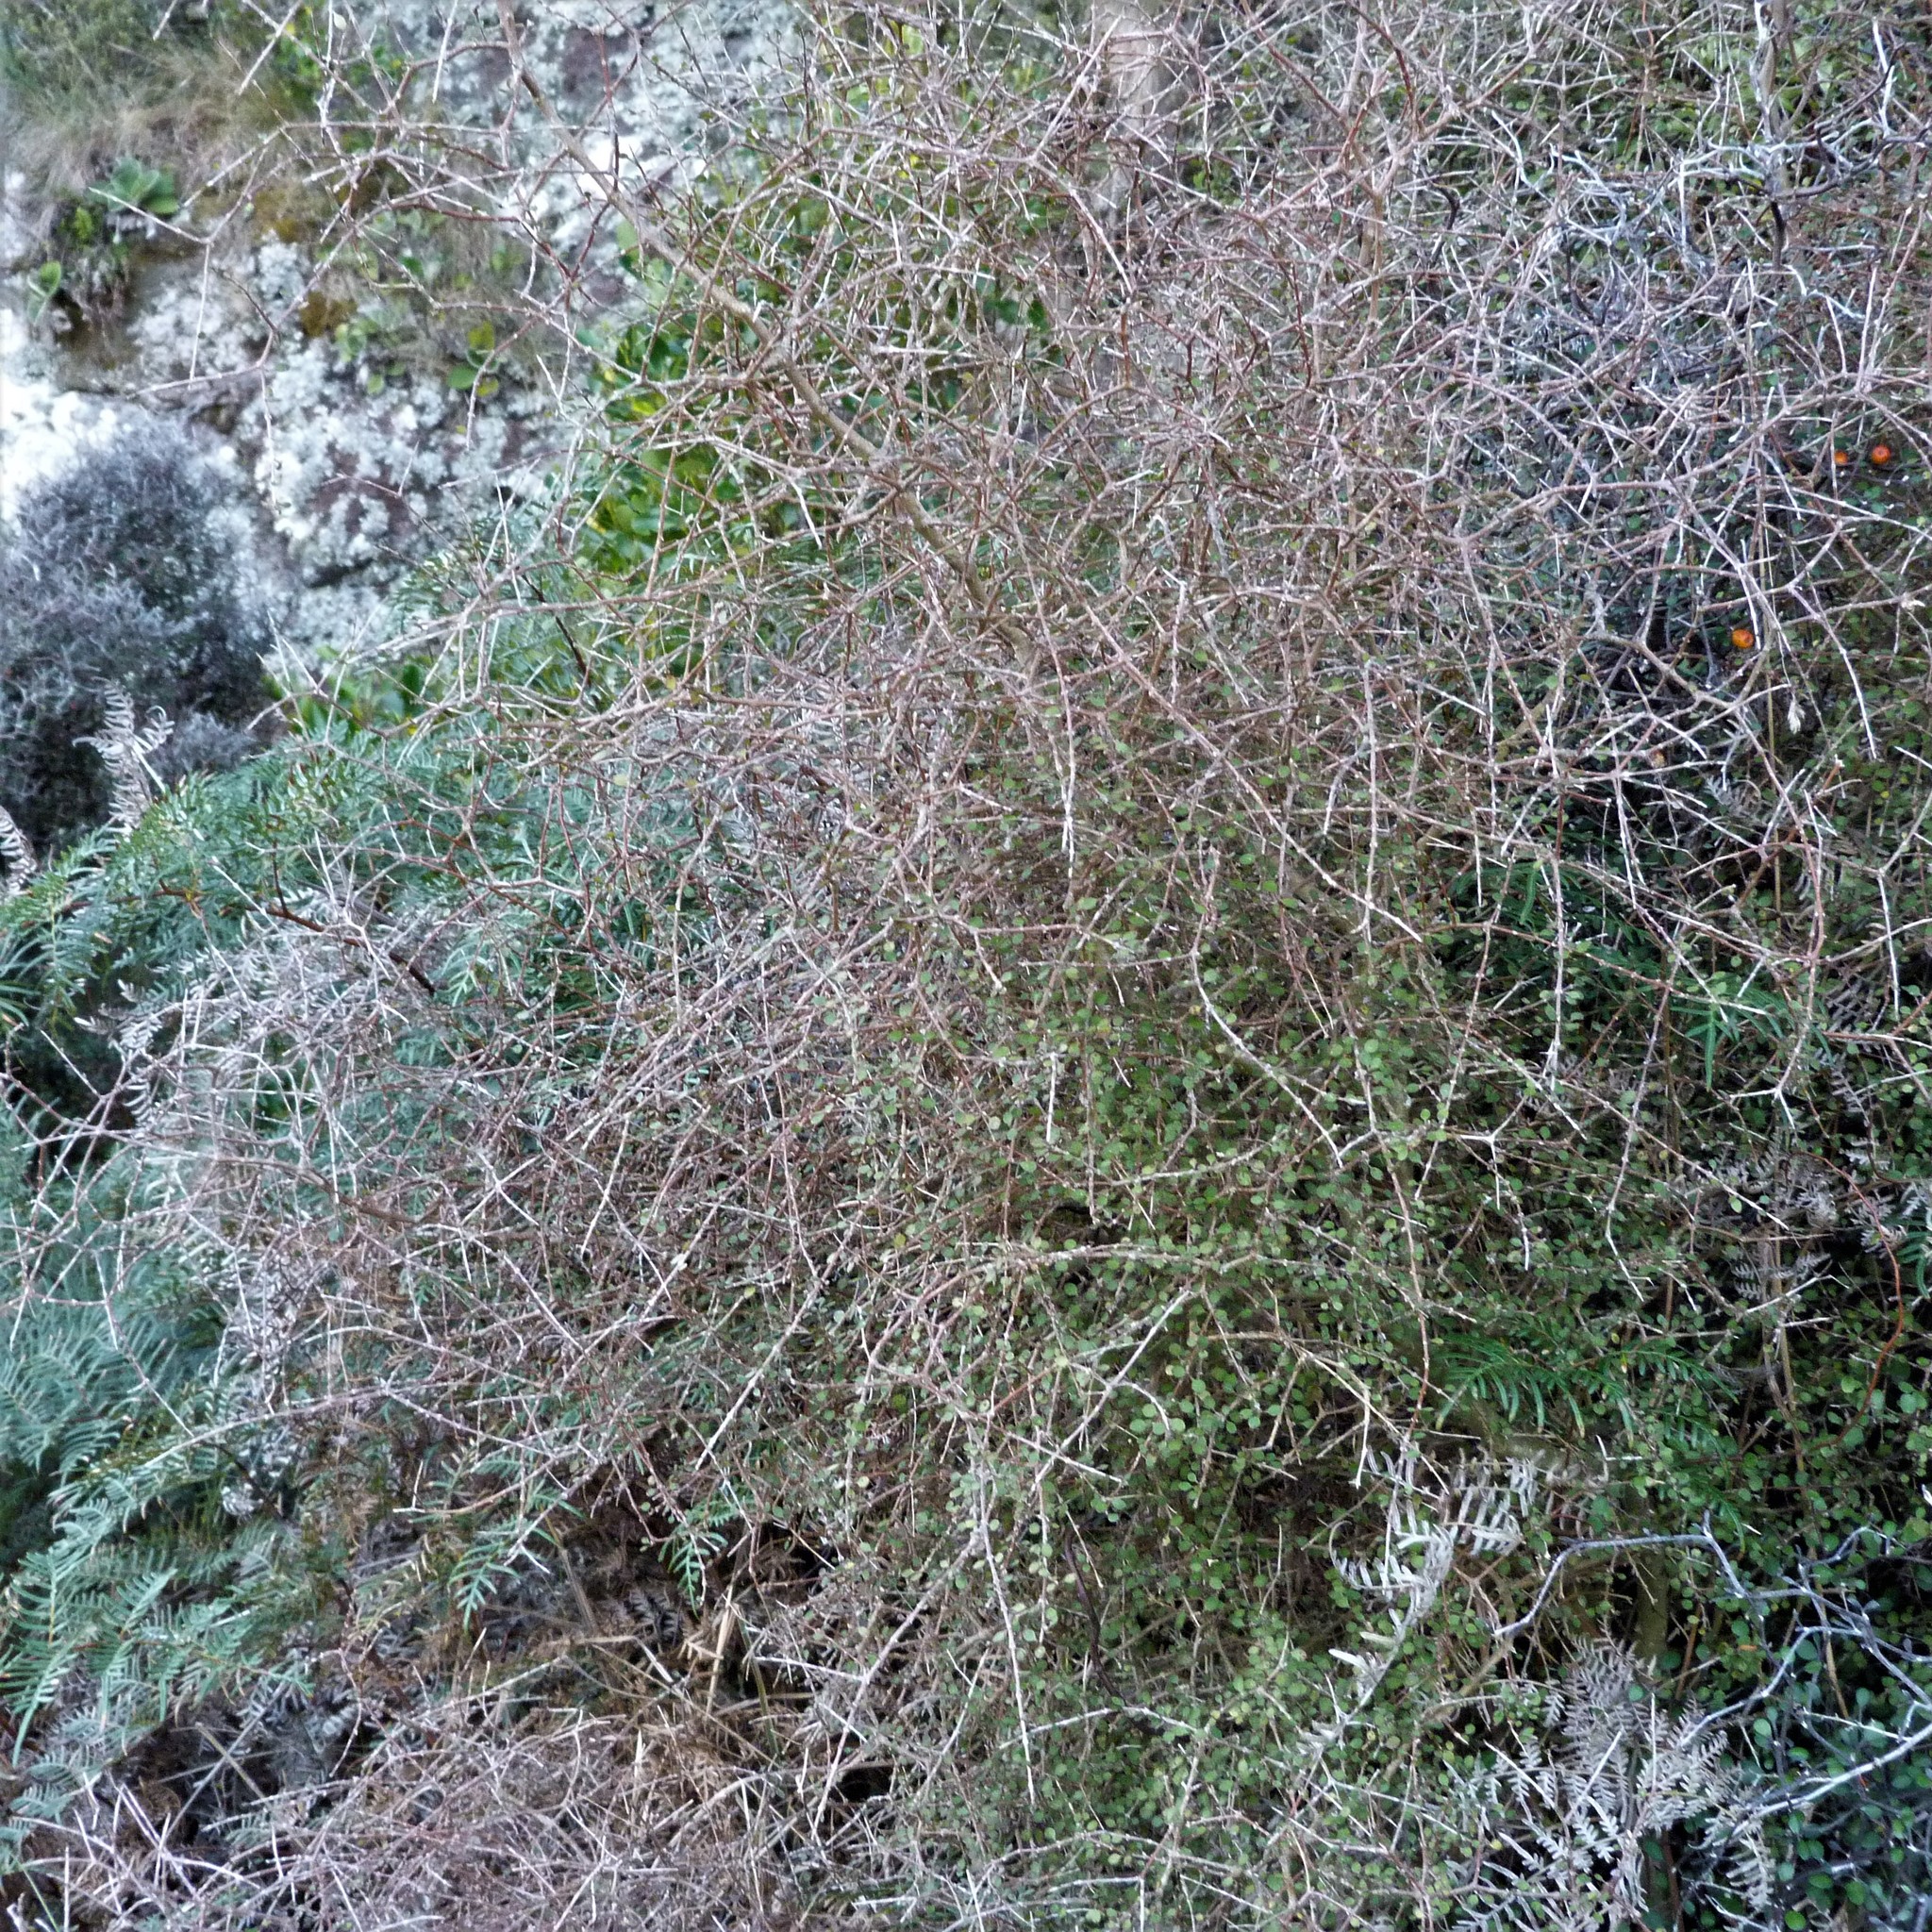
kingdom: Plantae
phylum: Tracheophyta
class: Magnoliopsida
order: Gentianales
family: Rubiaceae
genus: Coprosma
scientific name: Coprosma virescens
